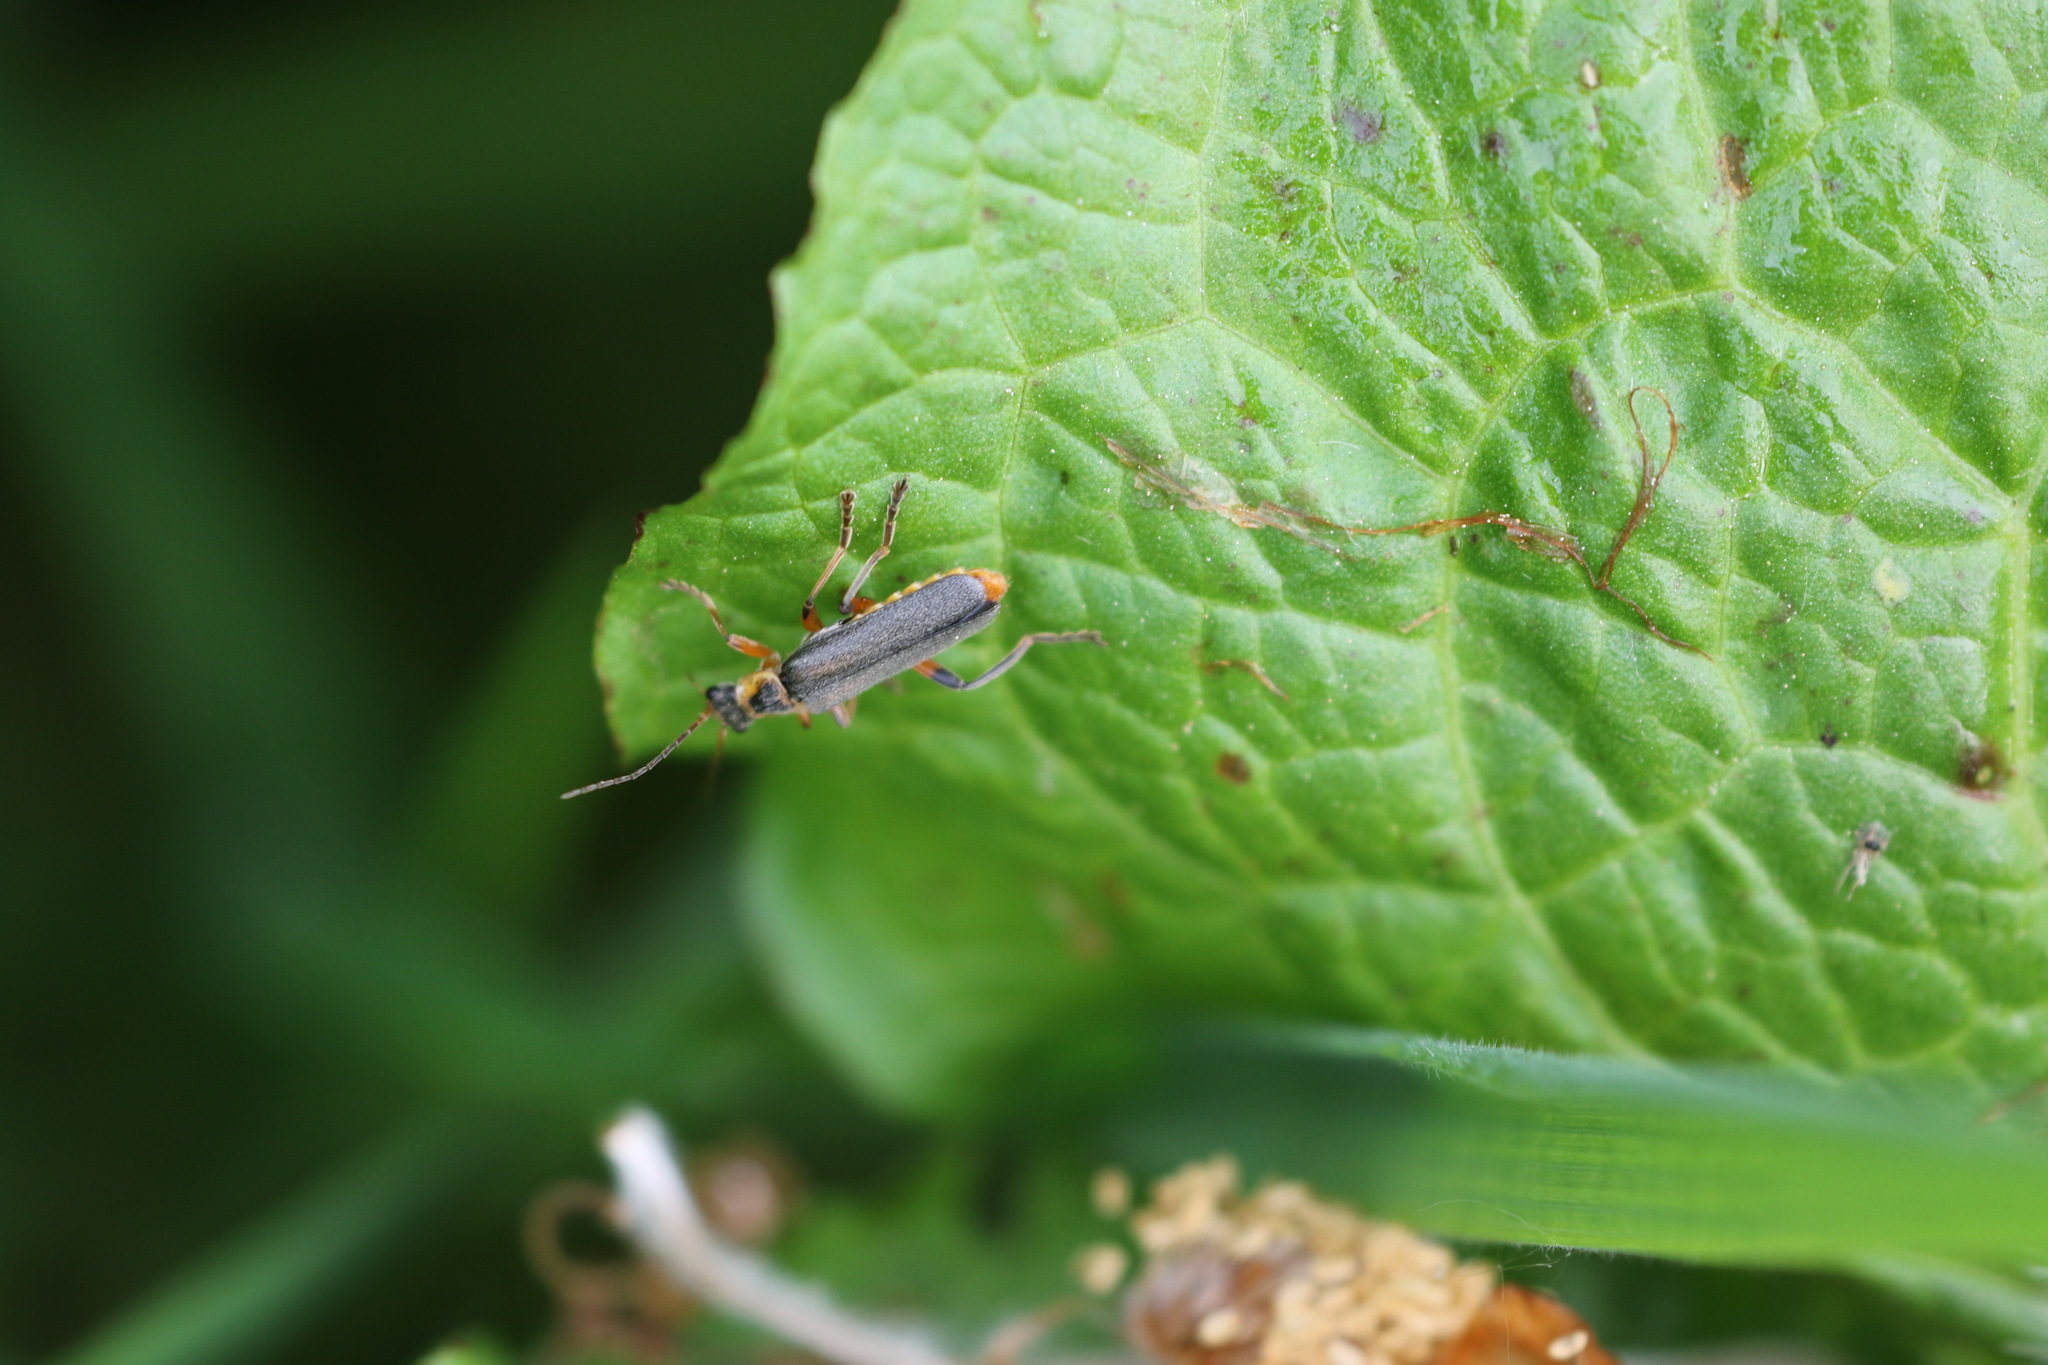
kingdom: Animalia
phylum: Arthropoda
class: Insecta
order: Coleoptera
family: Cantharidae
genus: Cantharis
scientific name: Cantharis nigricans
